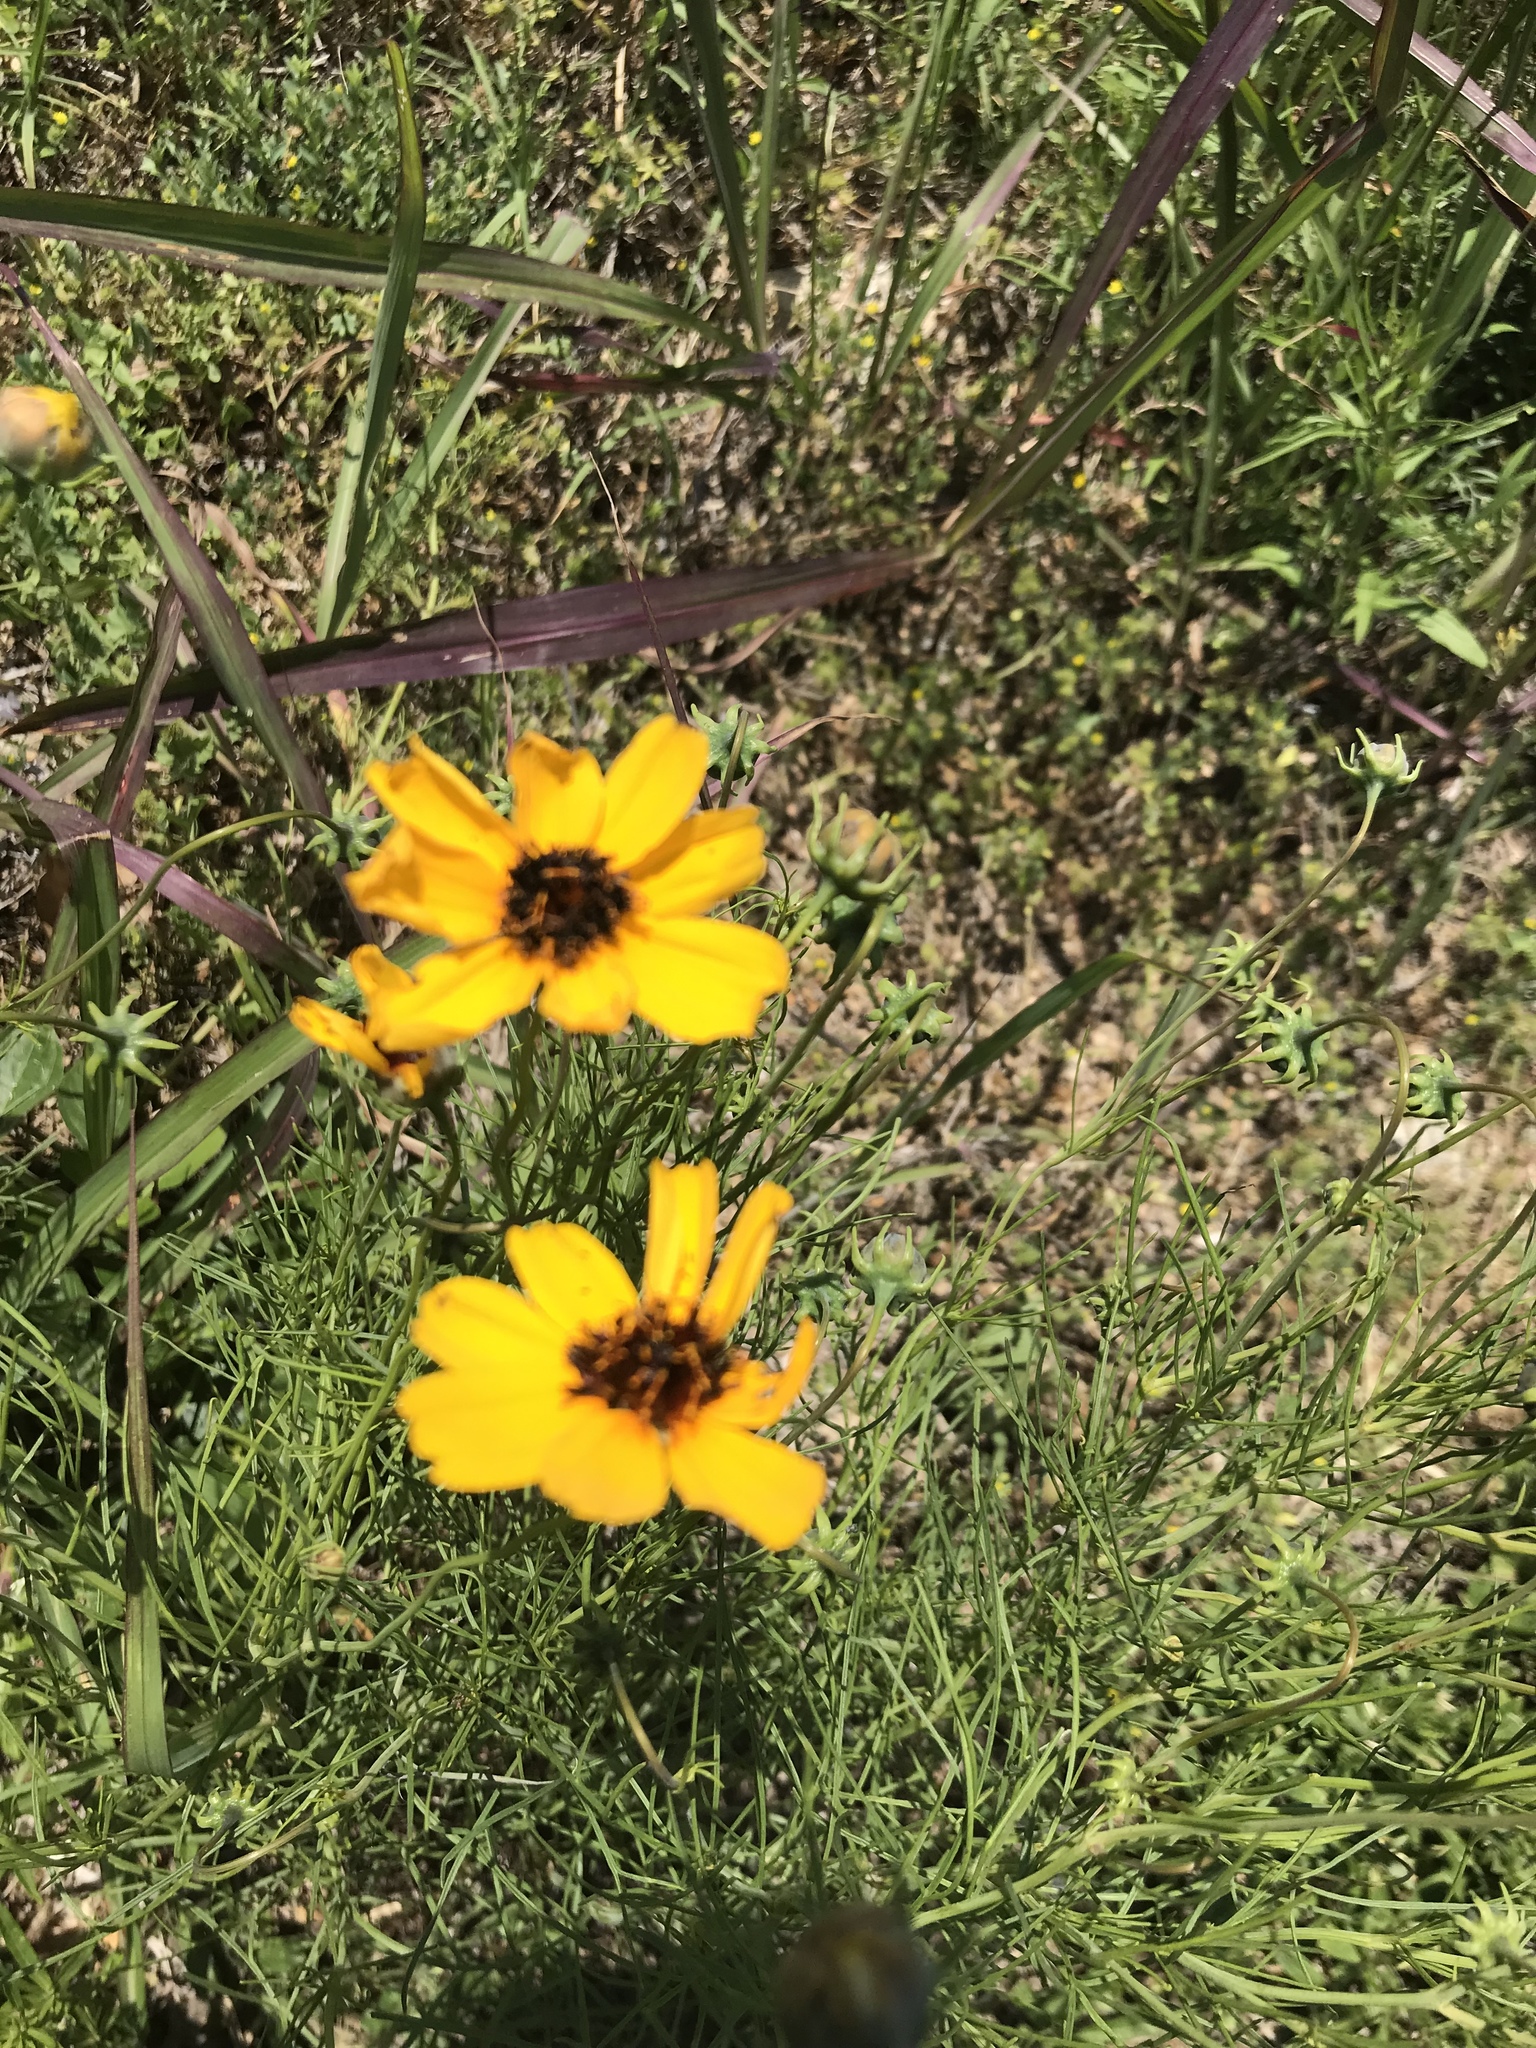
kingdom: Plantae
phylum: Tracheophyta
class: Magnoliopsida
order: Asterales
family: Asteraceae
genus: Thelesperma
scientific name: Thelesperma filifolium
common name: Stiff greenthread
